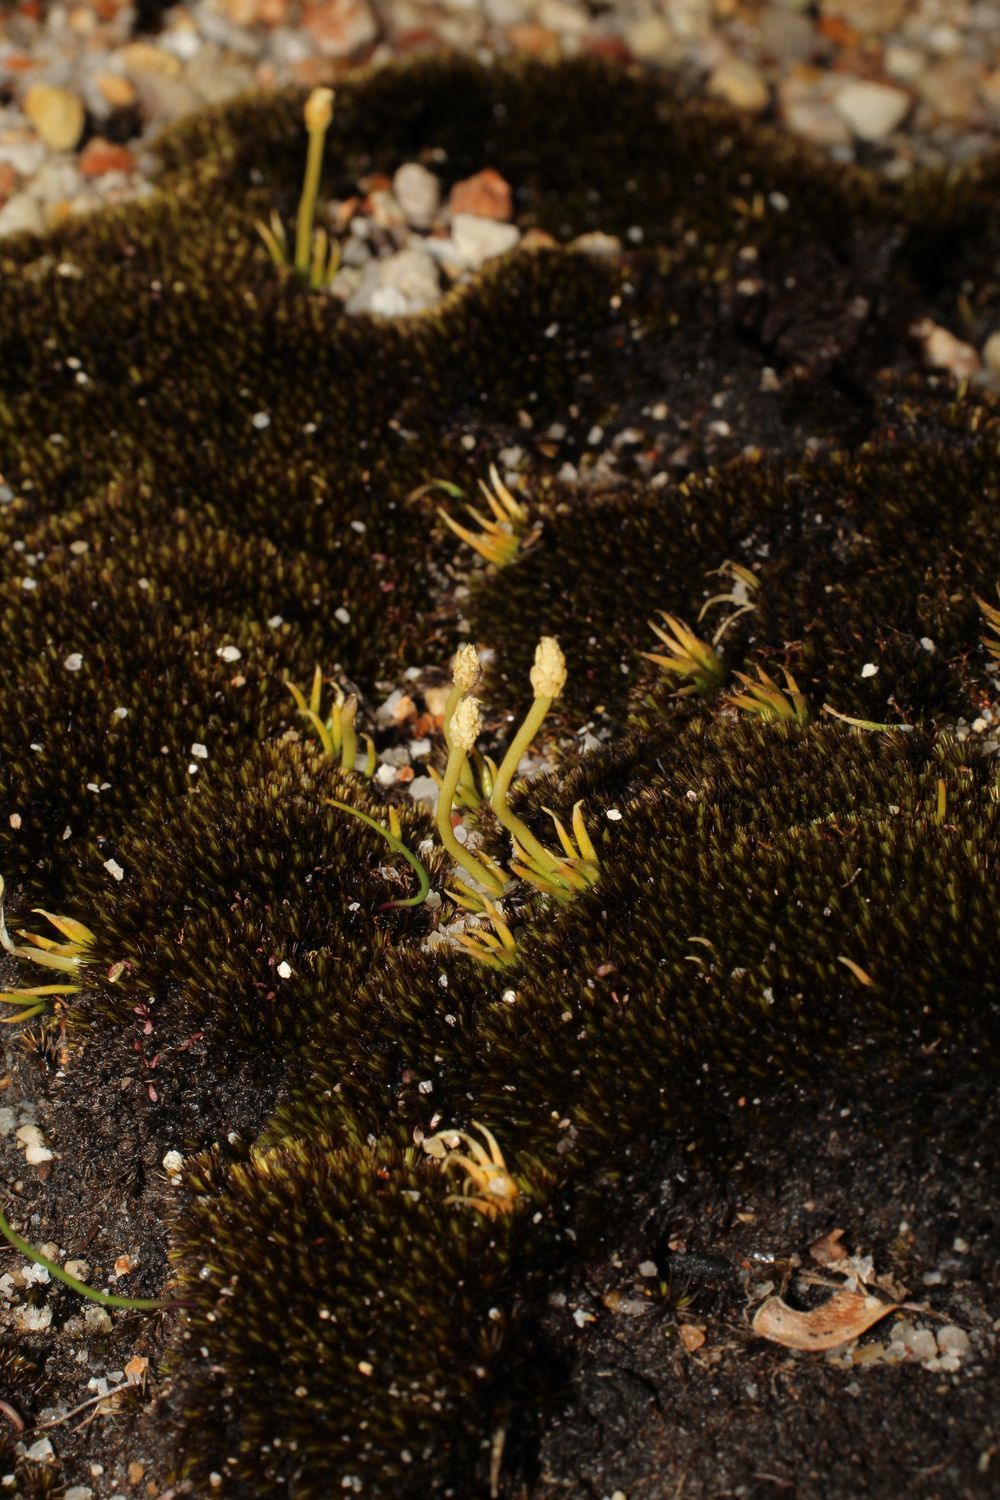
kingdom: Plantae
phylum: Tracheophyta
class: Lycopodiopsida
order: Lycopodiales
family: Lycopodiaceae
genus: Phylloglossum
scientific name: Phylloglossum drummondii
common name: Pigmy-club-moss
